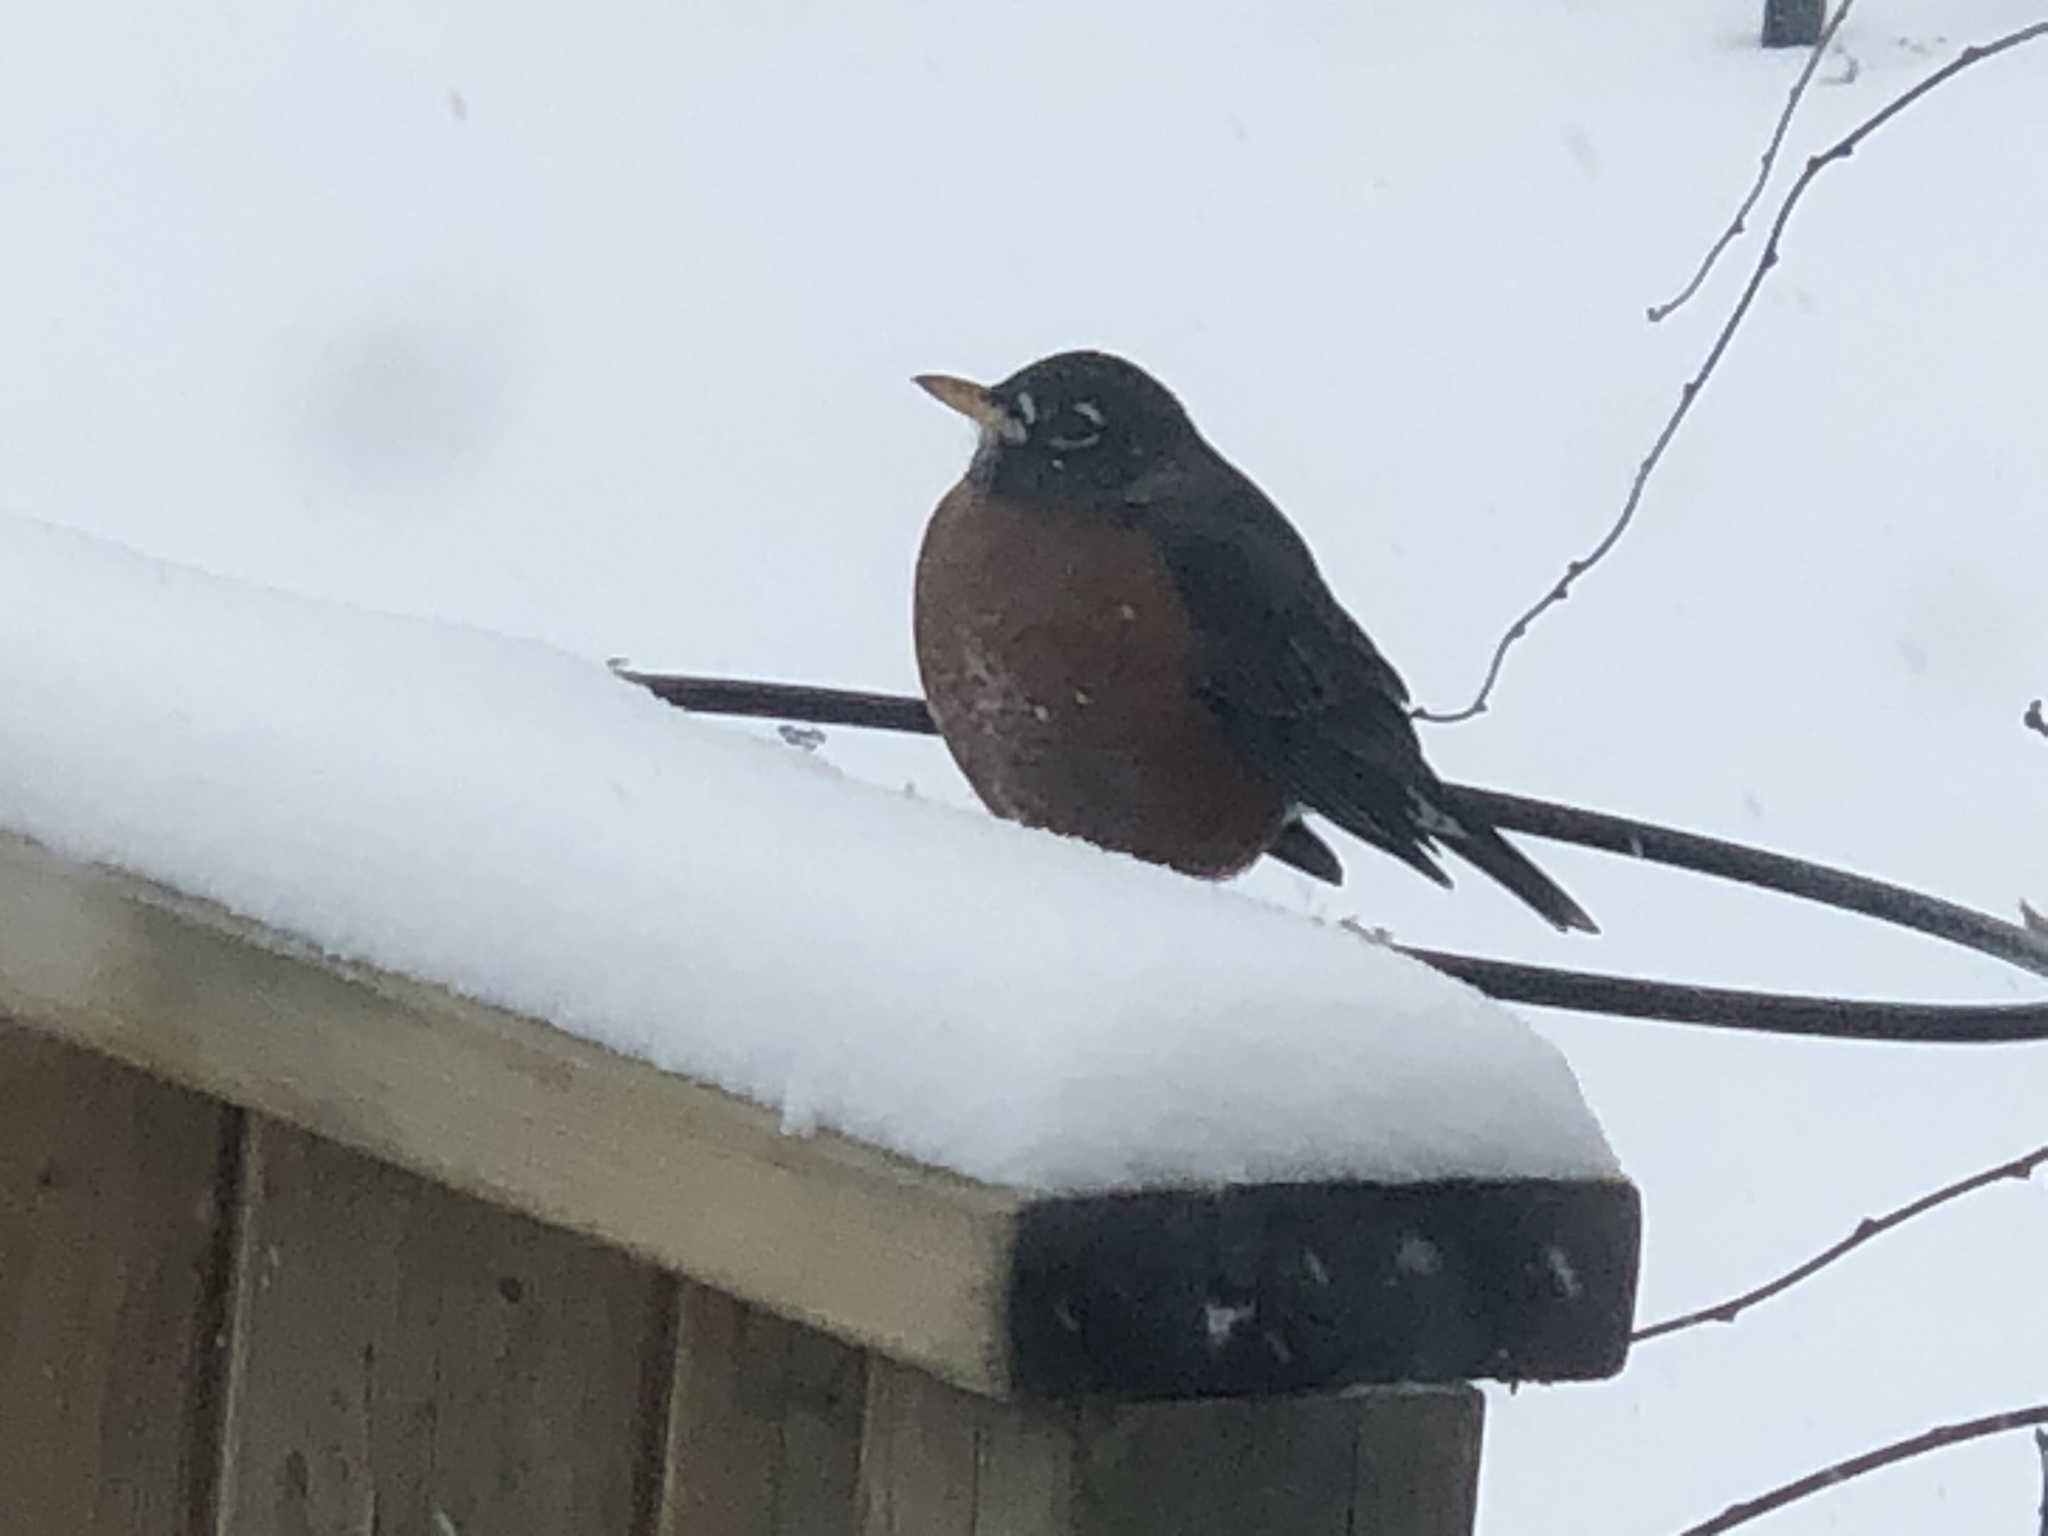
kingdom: Animalia
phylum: Chordata
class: Aves
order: Passeriformes
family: Turdidae
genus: Turdus
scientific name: Turdus migratorius
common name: American robin
